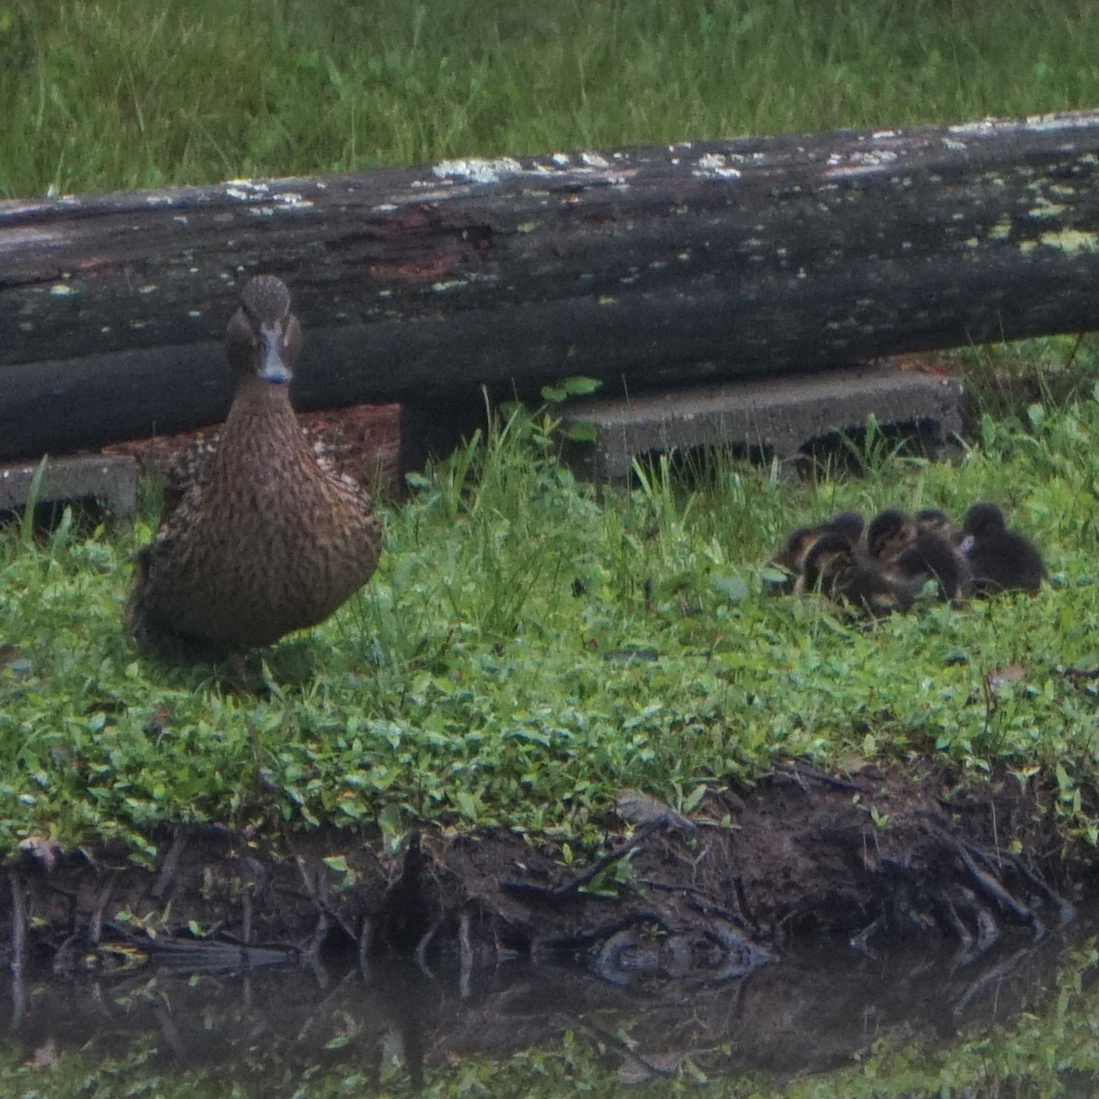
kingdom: Animalia
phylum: Chordata
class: Aves
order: Anseriformes
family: Anatidae
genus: Anas
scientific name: Anas platyrhynchos
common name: Mallard
